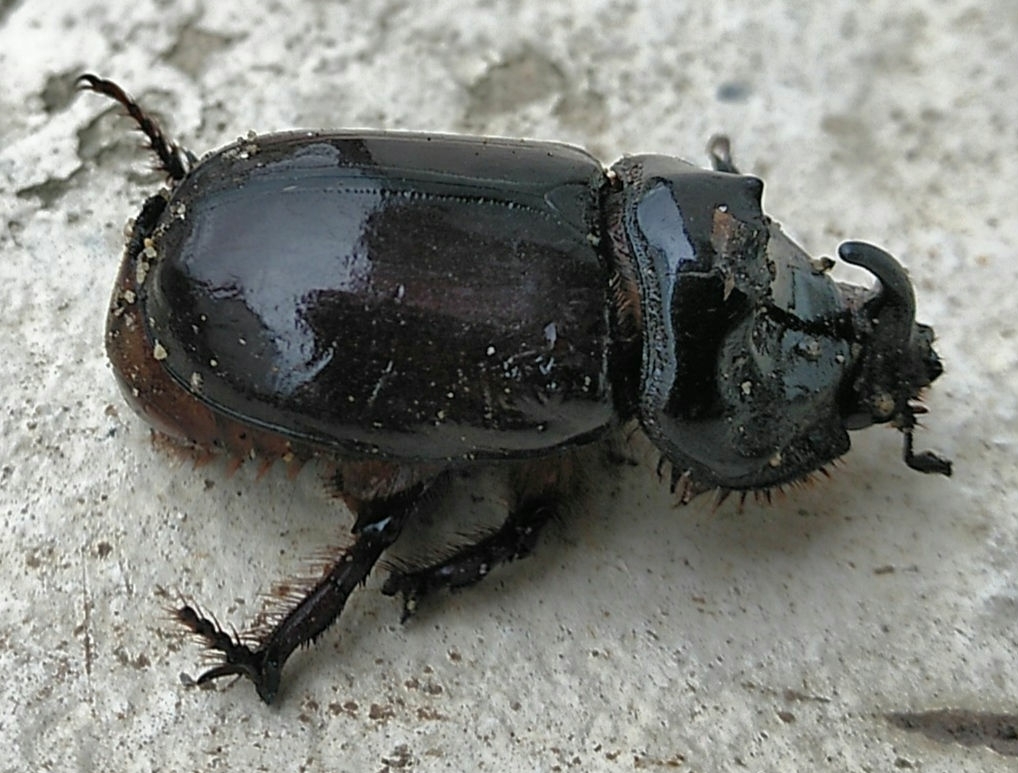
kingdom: Animalia
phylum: Arthropoda
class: Insecta
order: Coleoptera
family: Scarabaeidae
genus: Oryctes
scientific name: Oryctes nasicornis
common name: European rhinoceros beetle
